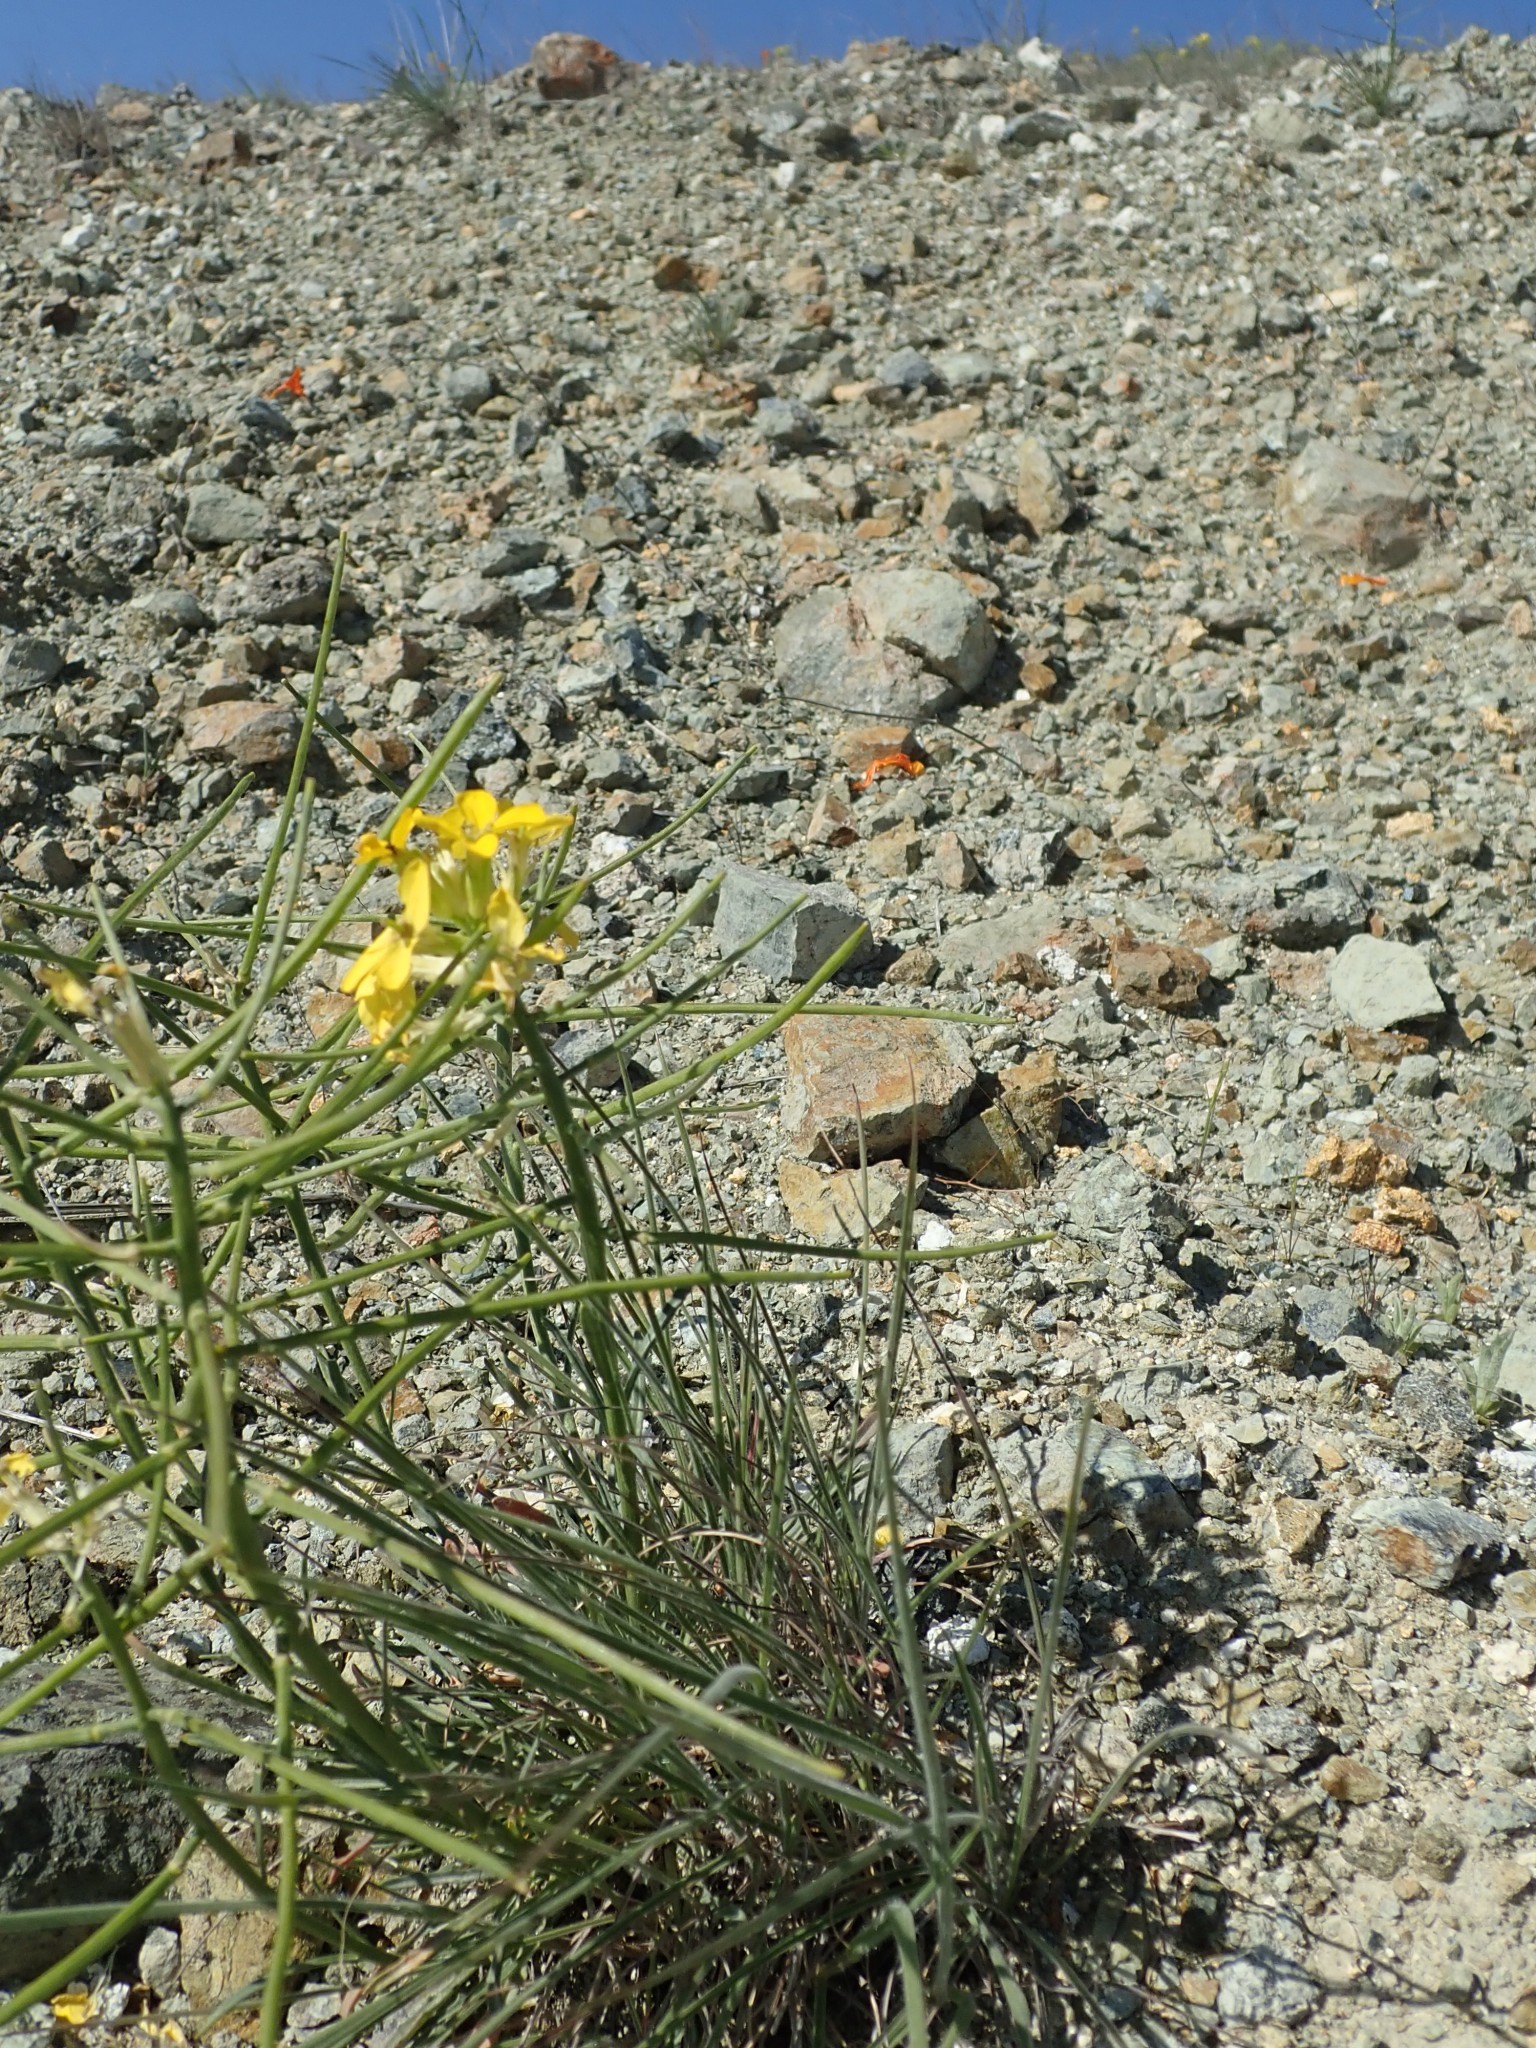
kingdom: Plantae
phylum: Tracheophyta
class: Magnoliopsida
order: Brassicales
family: Brassicaceae
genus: Erysimum
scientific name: Erysimum franciscanum
